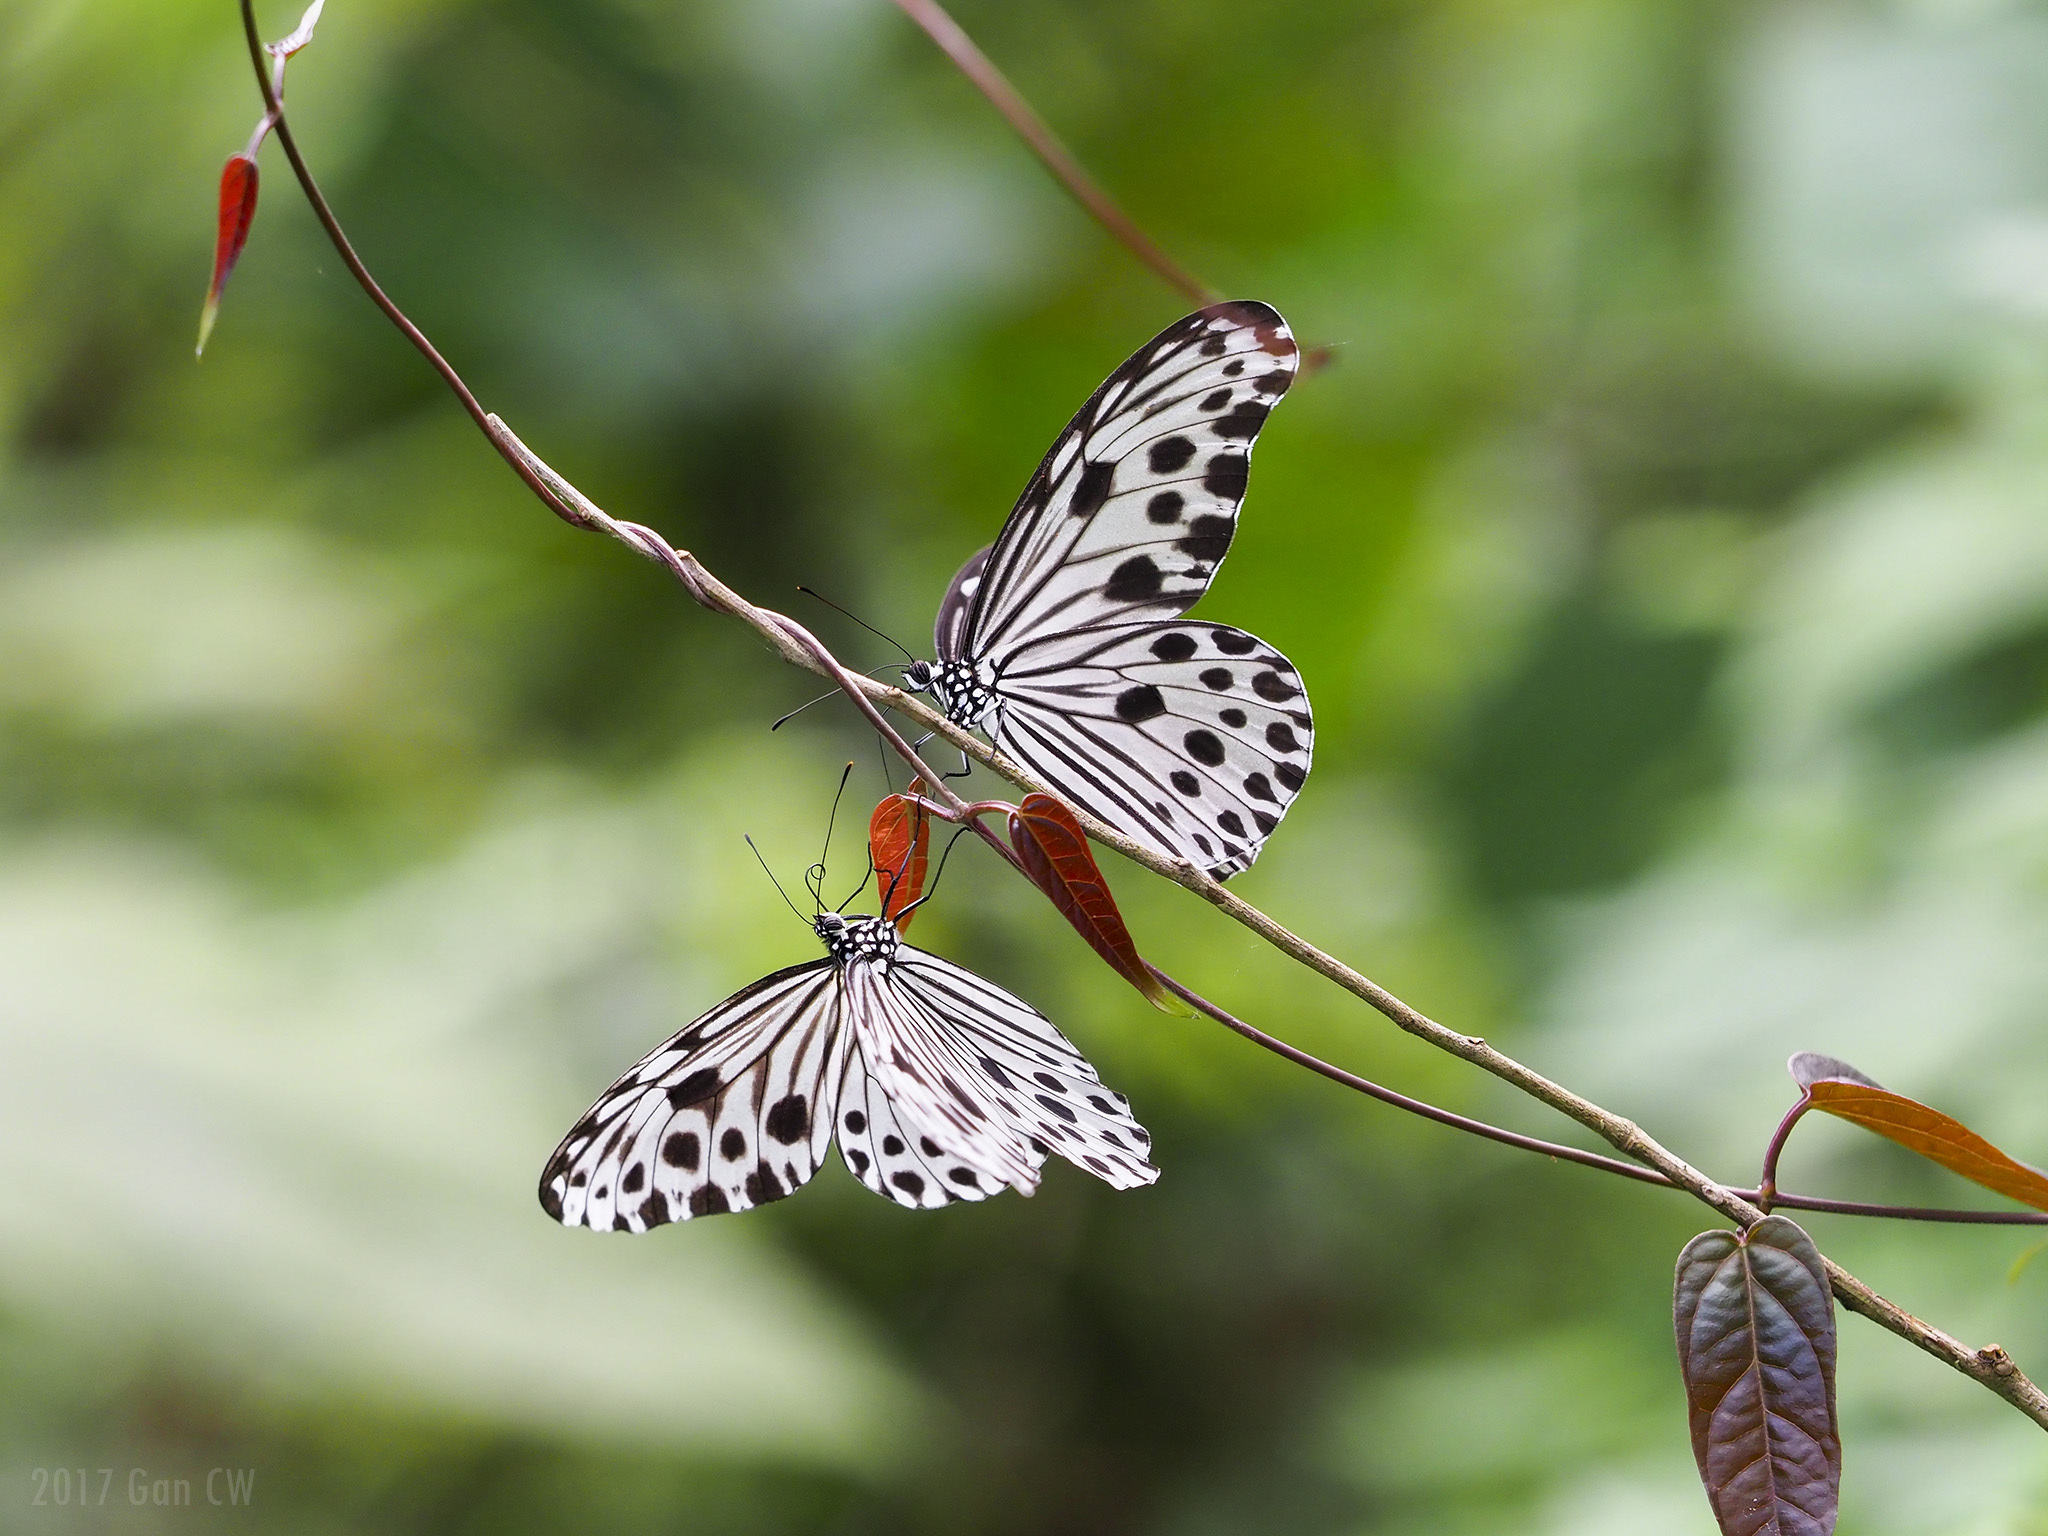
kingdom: Animalia
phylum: Arthropoda
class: Insecta
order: Lepidoptera
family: Nymphalidae
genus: Ideopsis
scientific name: Ideopsis gaura
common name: Smaller wood nymph
